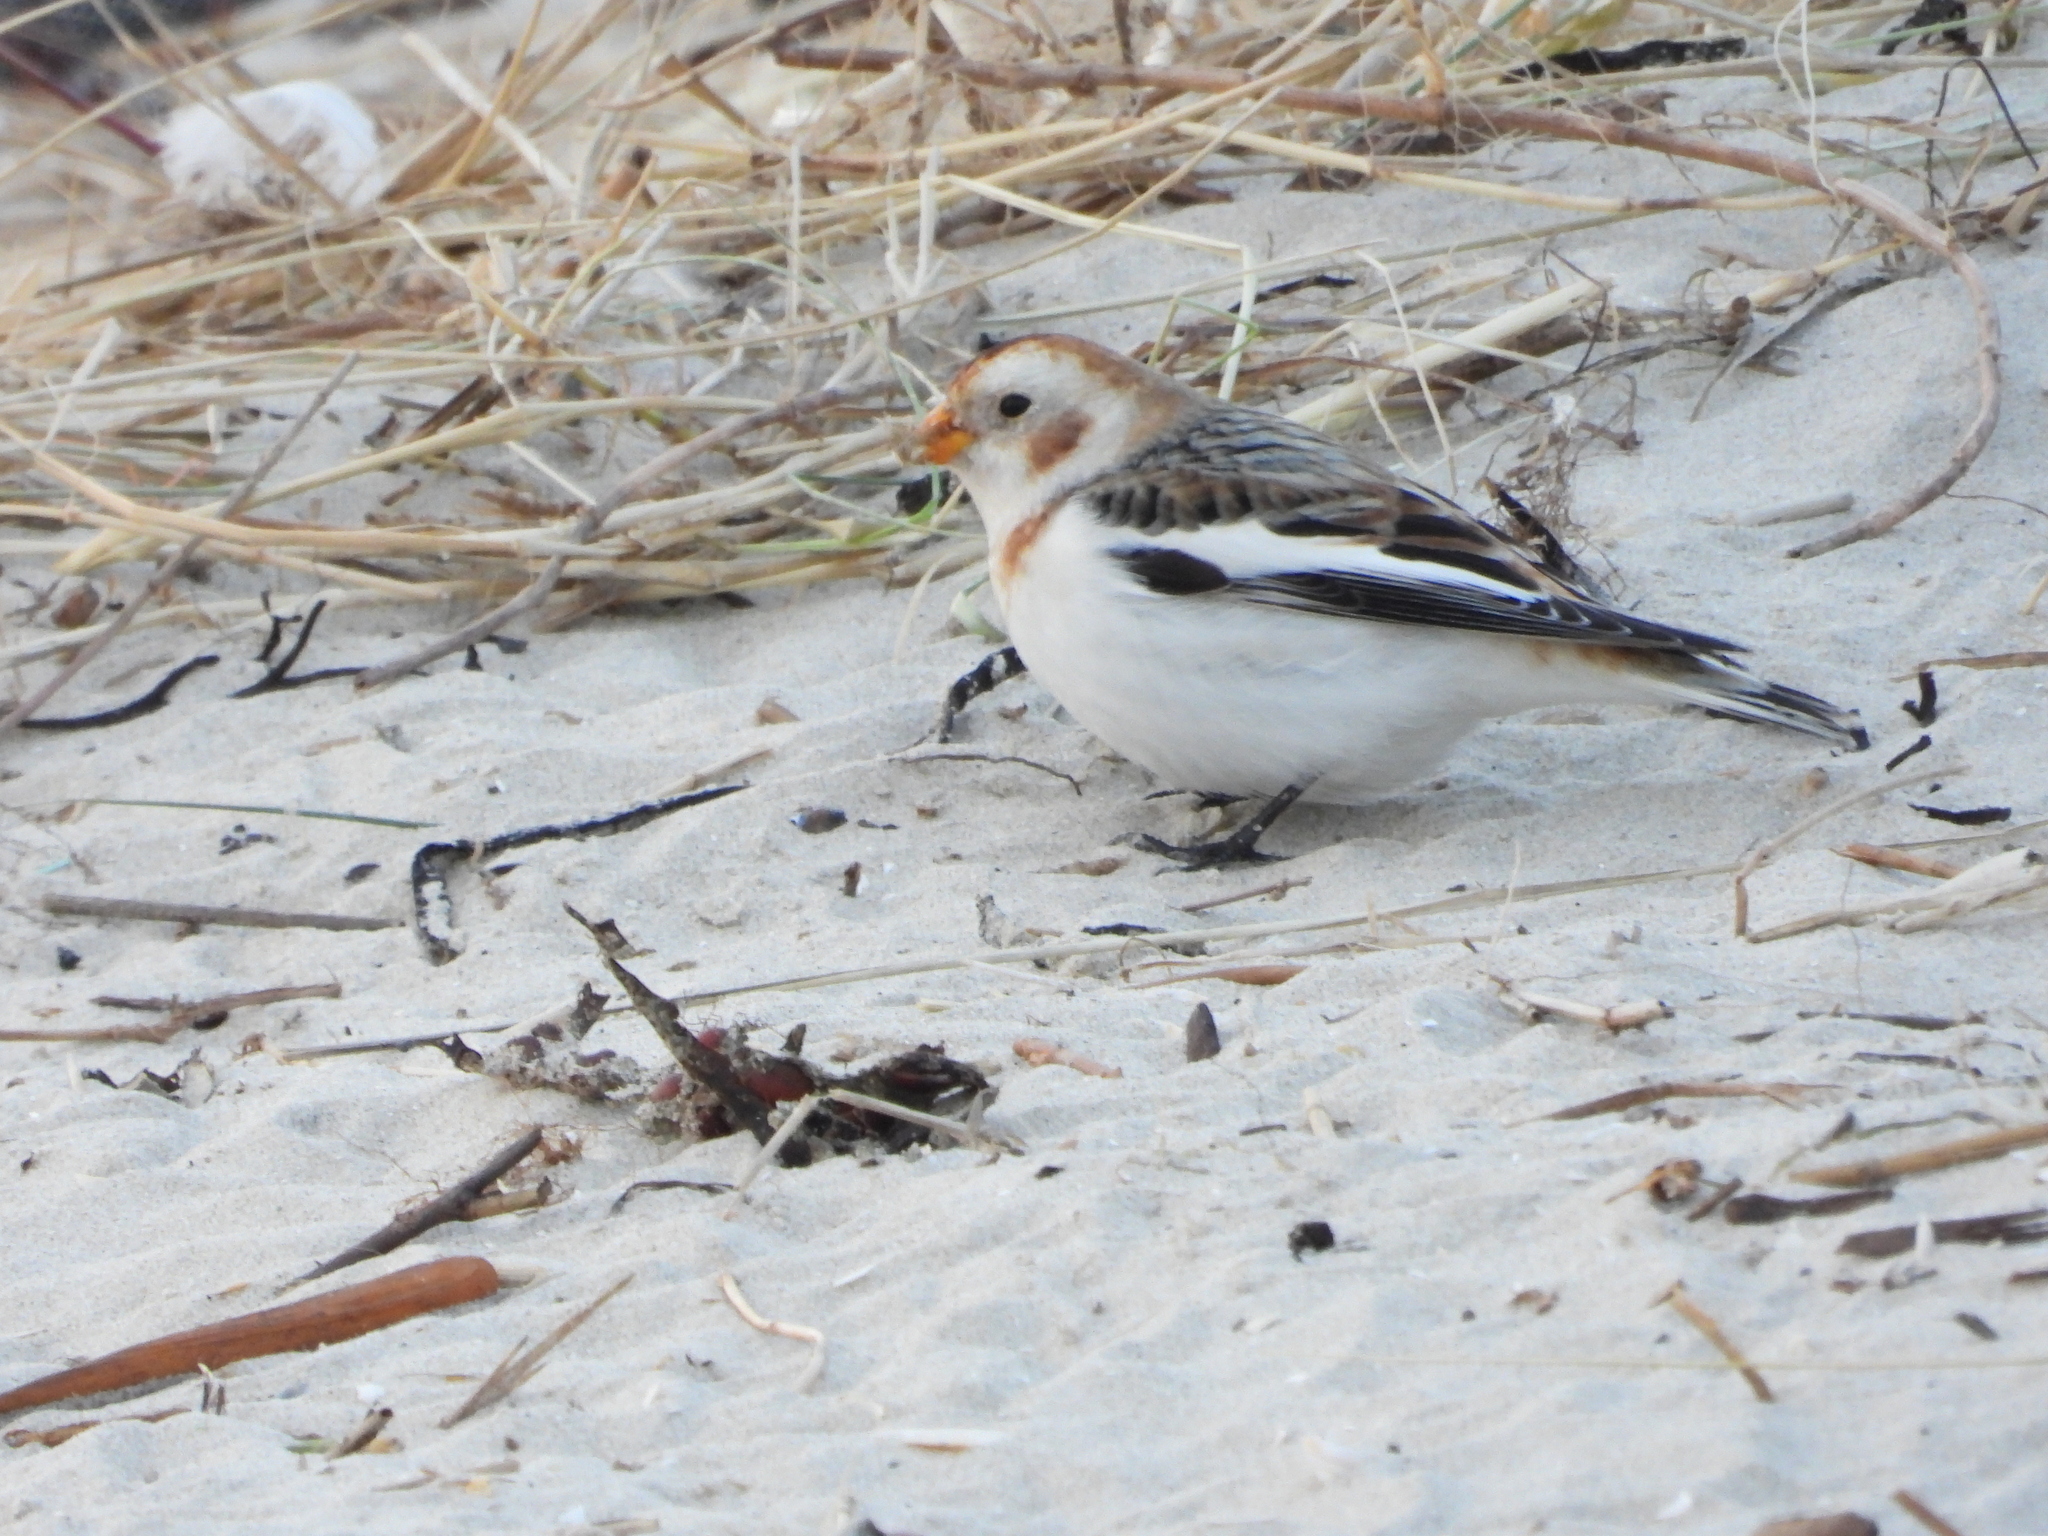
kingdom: Animalia
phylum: Chordata
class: Aves
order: Passeriformes
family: Calcariidae
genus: Plectrophenax
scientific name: Plectrophenax nivalis
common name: Snow bunting
